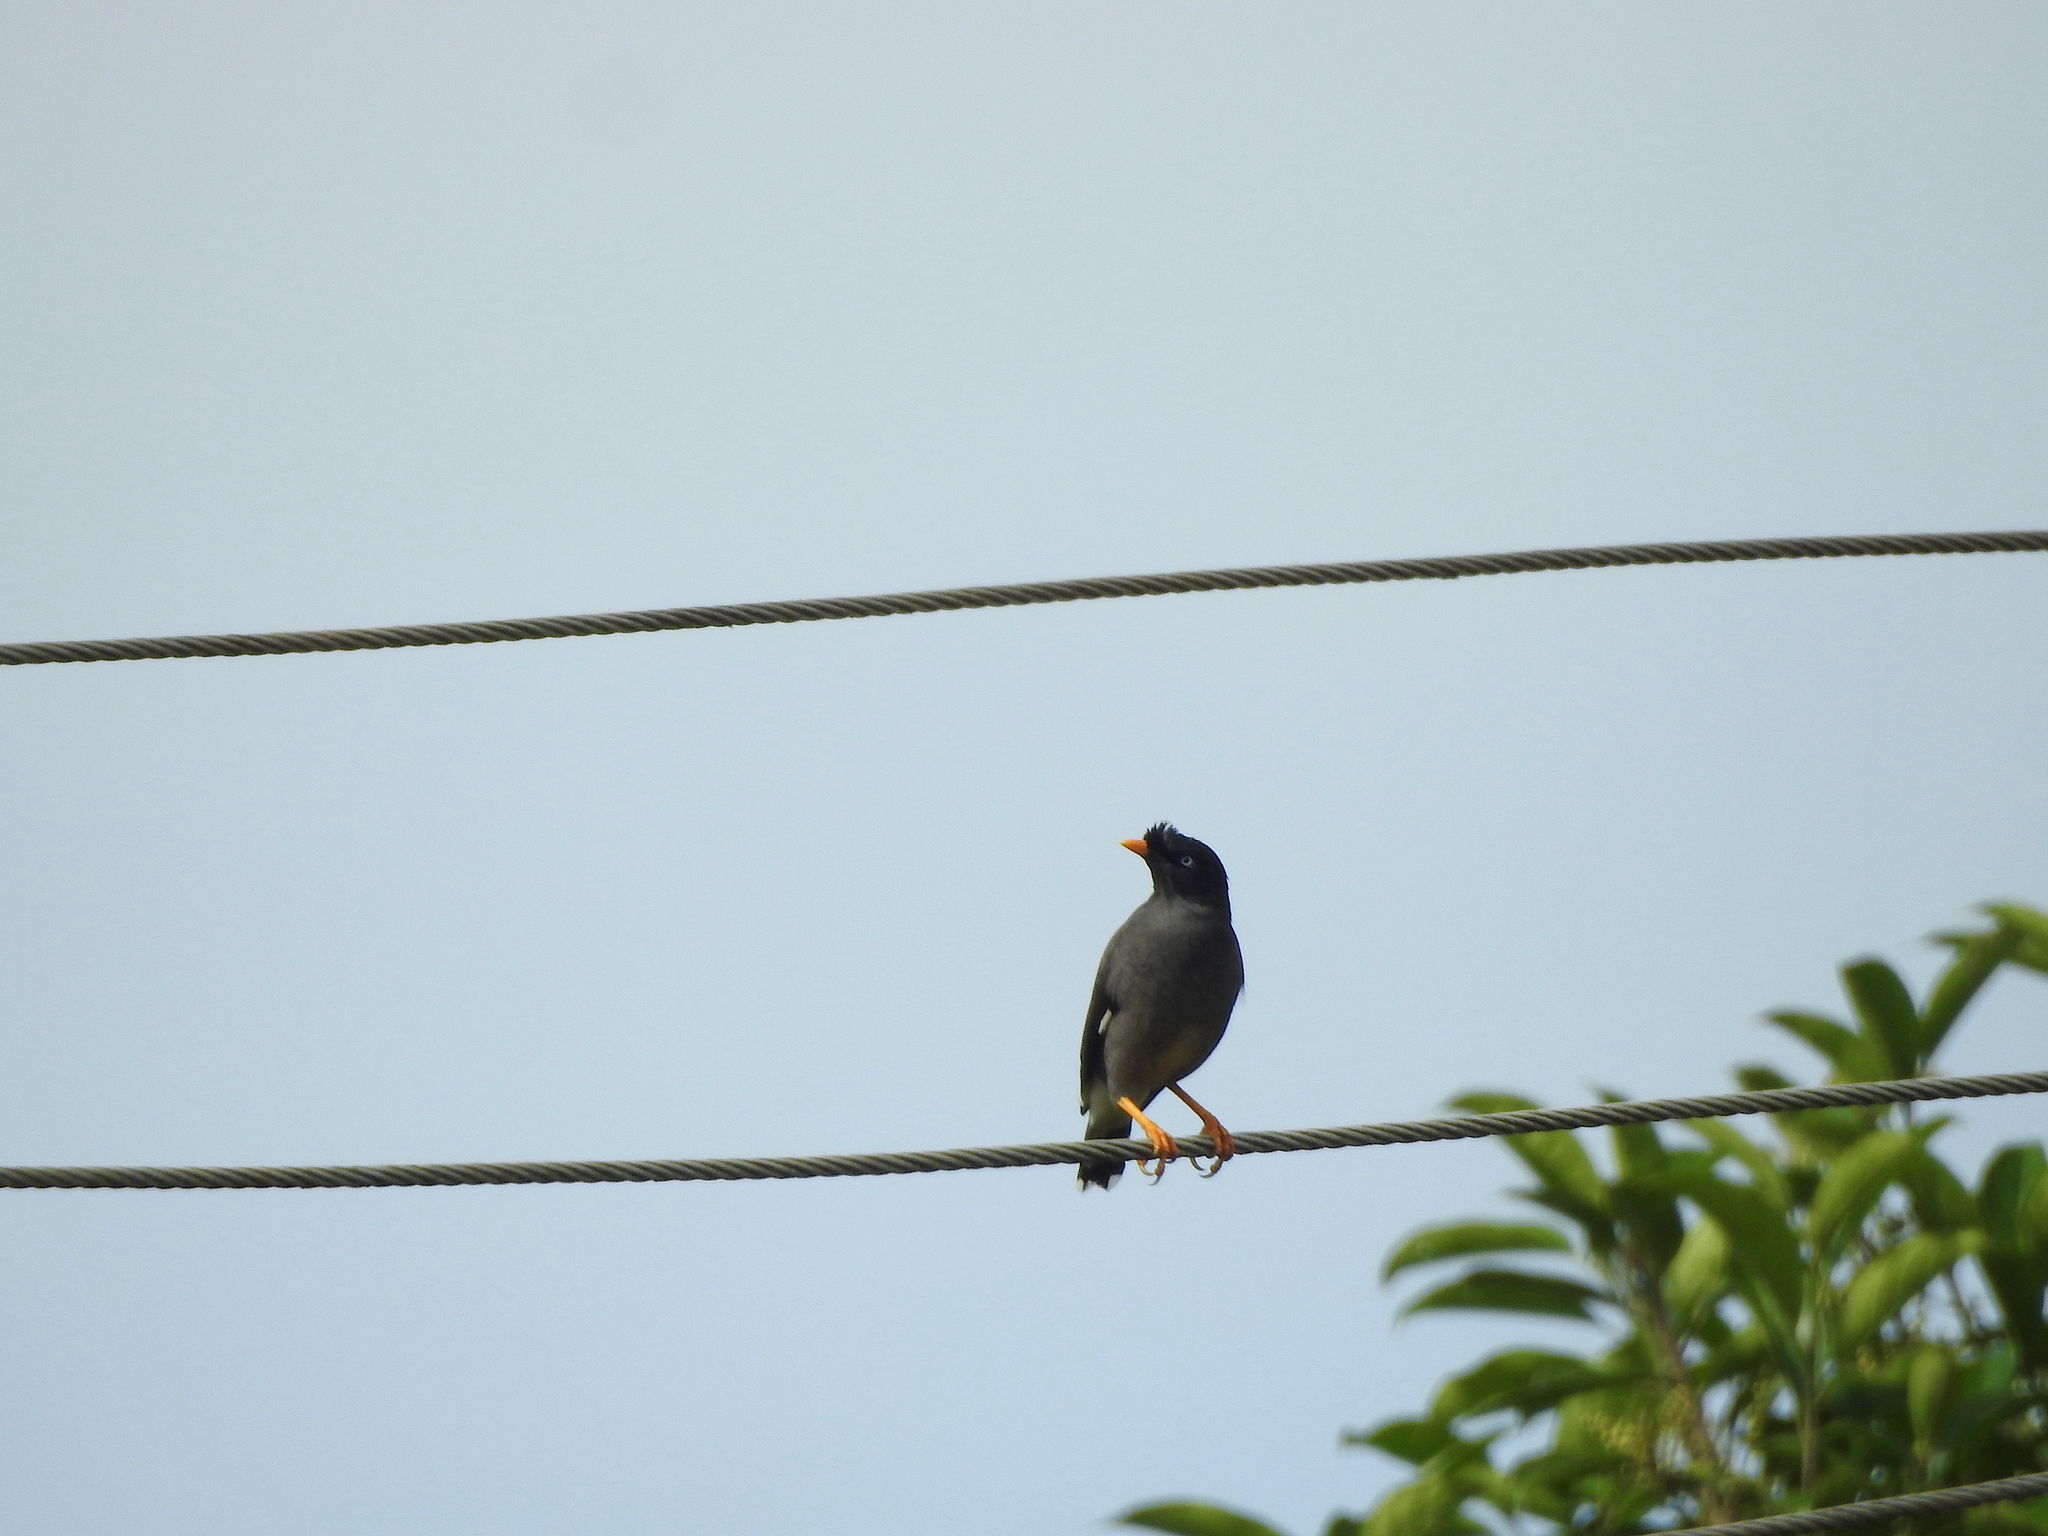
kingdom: Animalia
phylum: Chordata
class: Aves
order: Passeriformes
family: Sturnidae
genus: Acridotheres
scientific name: Acridotheres fuscus
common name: Jungle myna
